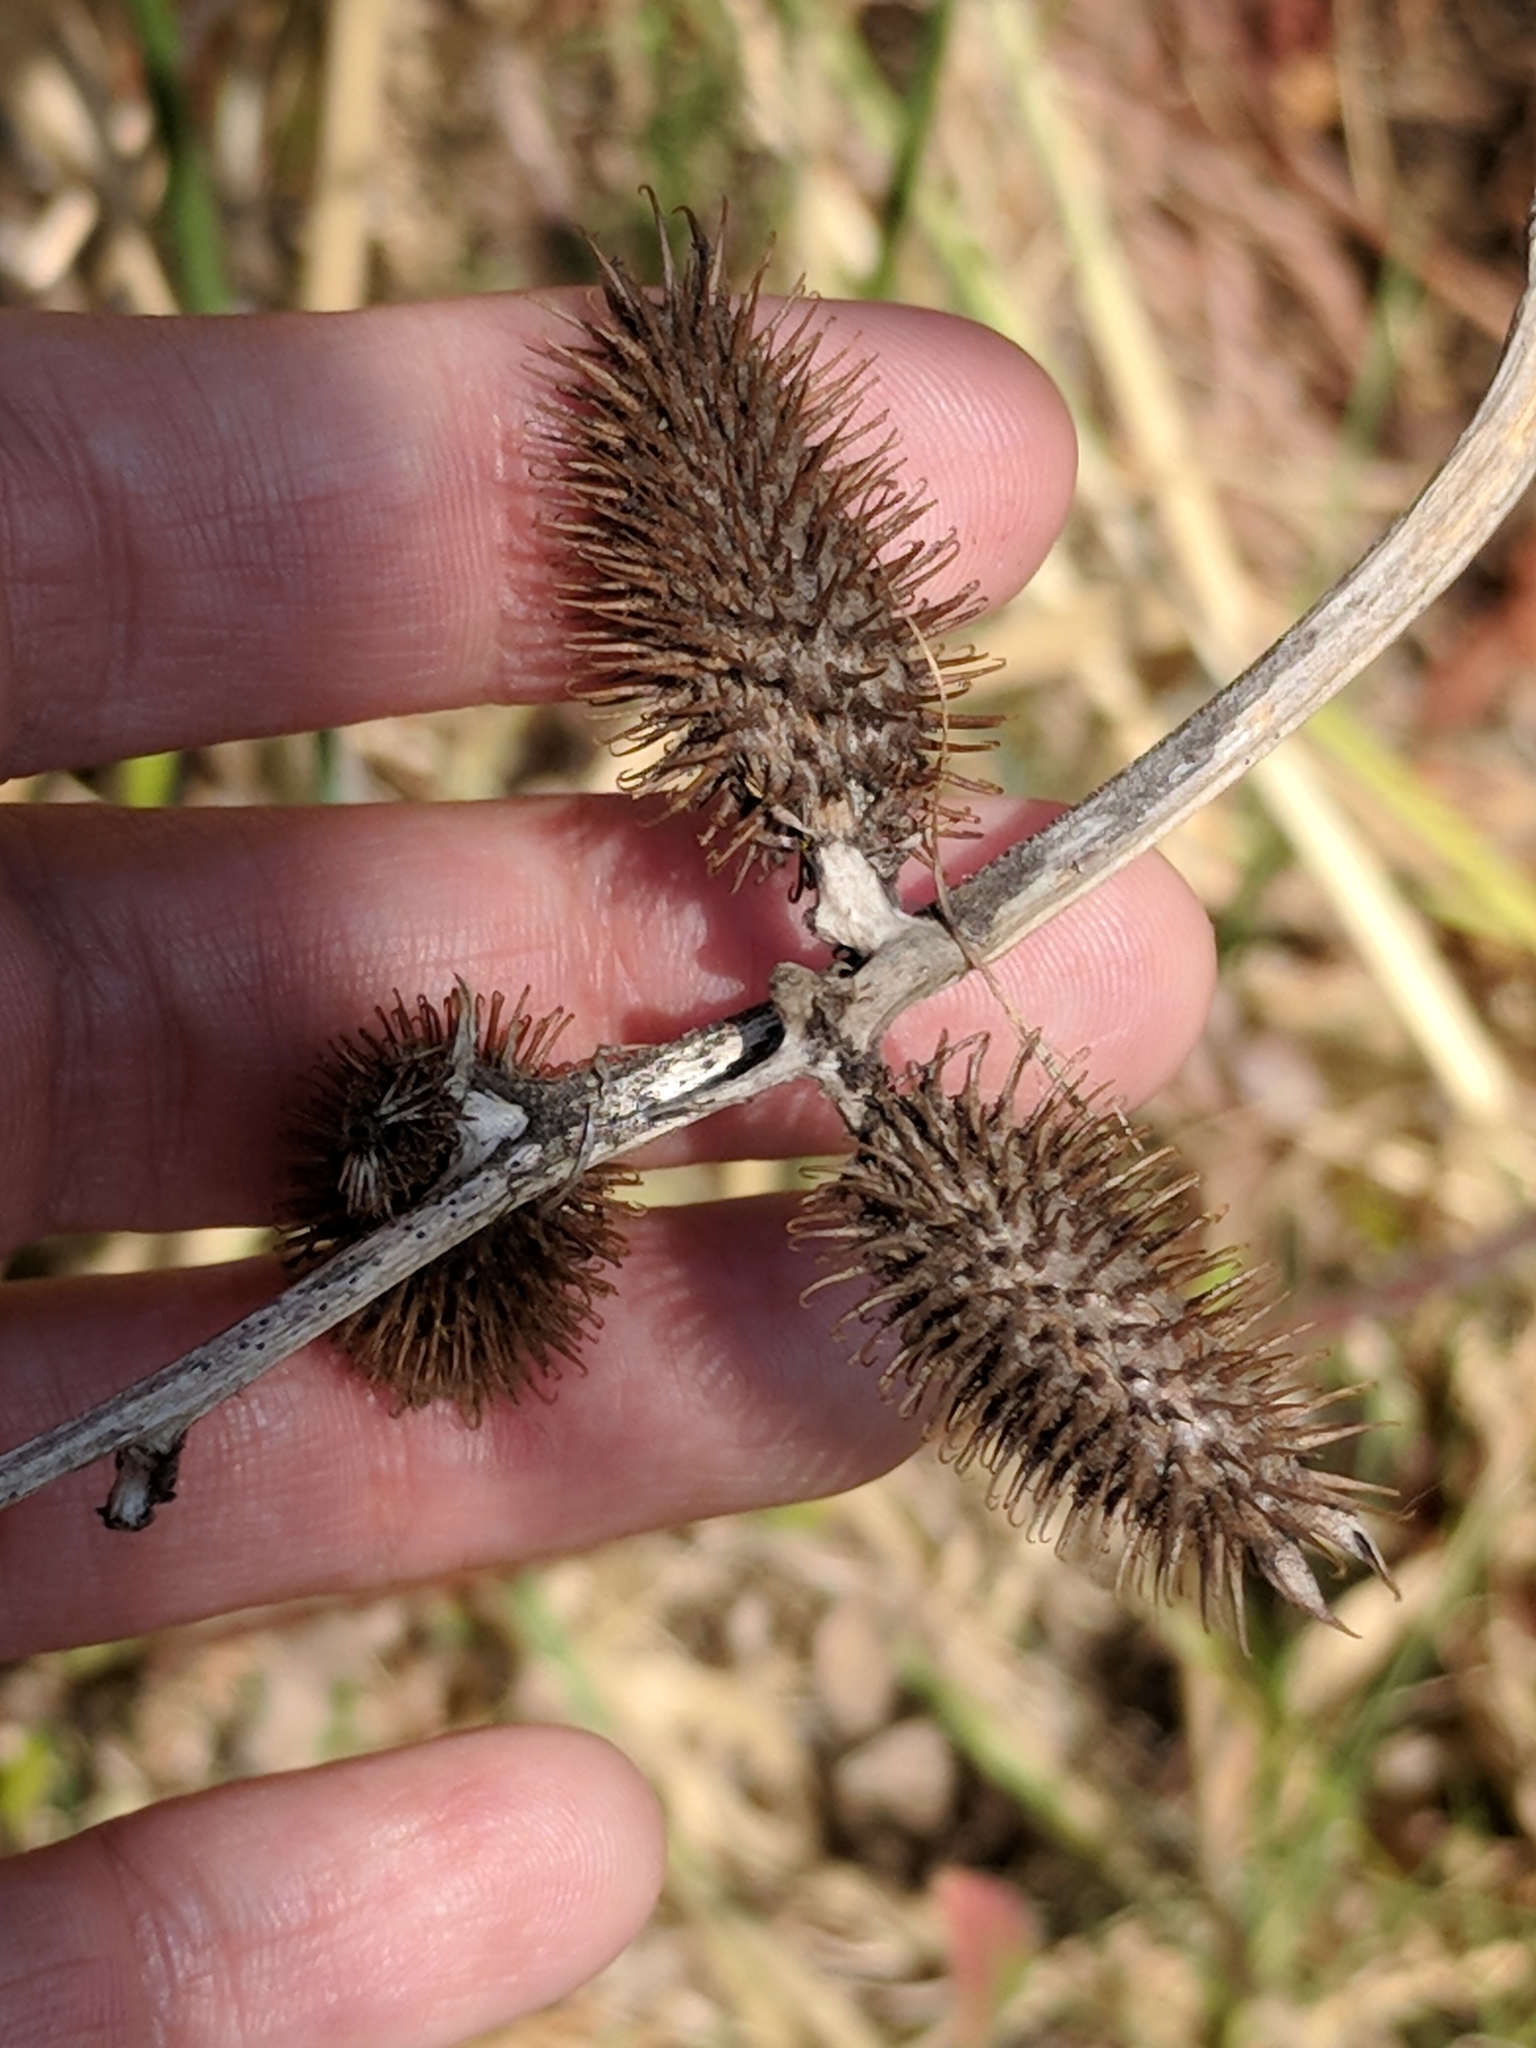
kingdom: Plantae
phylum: Tracheophyta
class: Magnoliopsida
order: Asterales
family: Asteraceae
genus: Xanthium
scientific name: Xanthium strumarium
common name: Rough cocklebur
